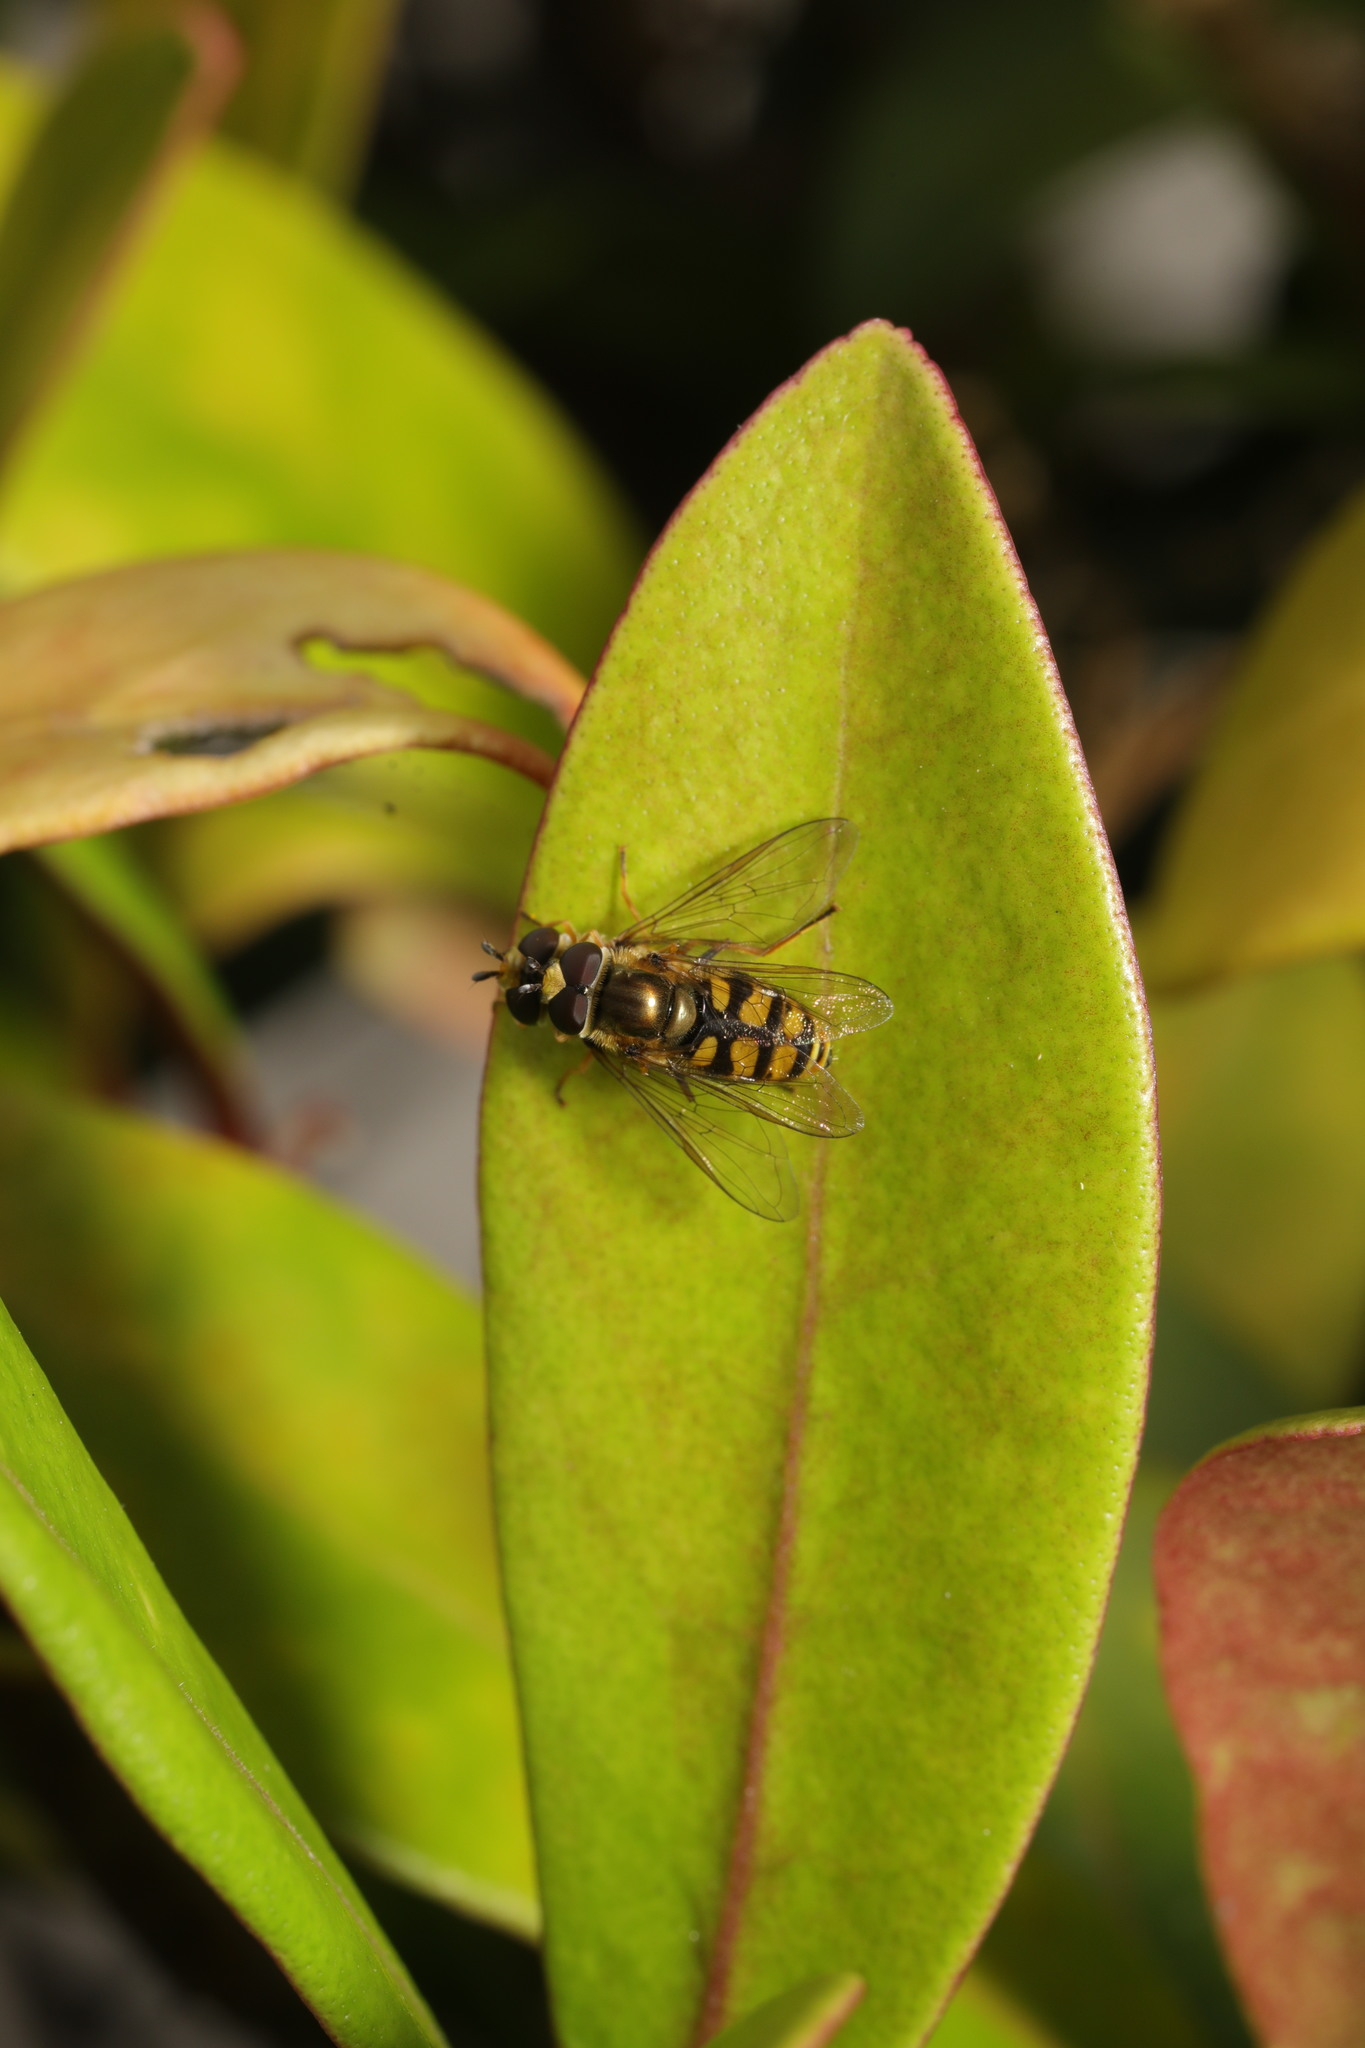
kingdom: Animalia
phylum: Arthropoda
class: Insecta
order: Diptera
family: Syrphidae
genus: Eupeodes
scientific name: Eupeodes corollae
